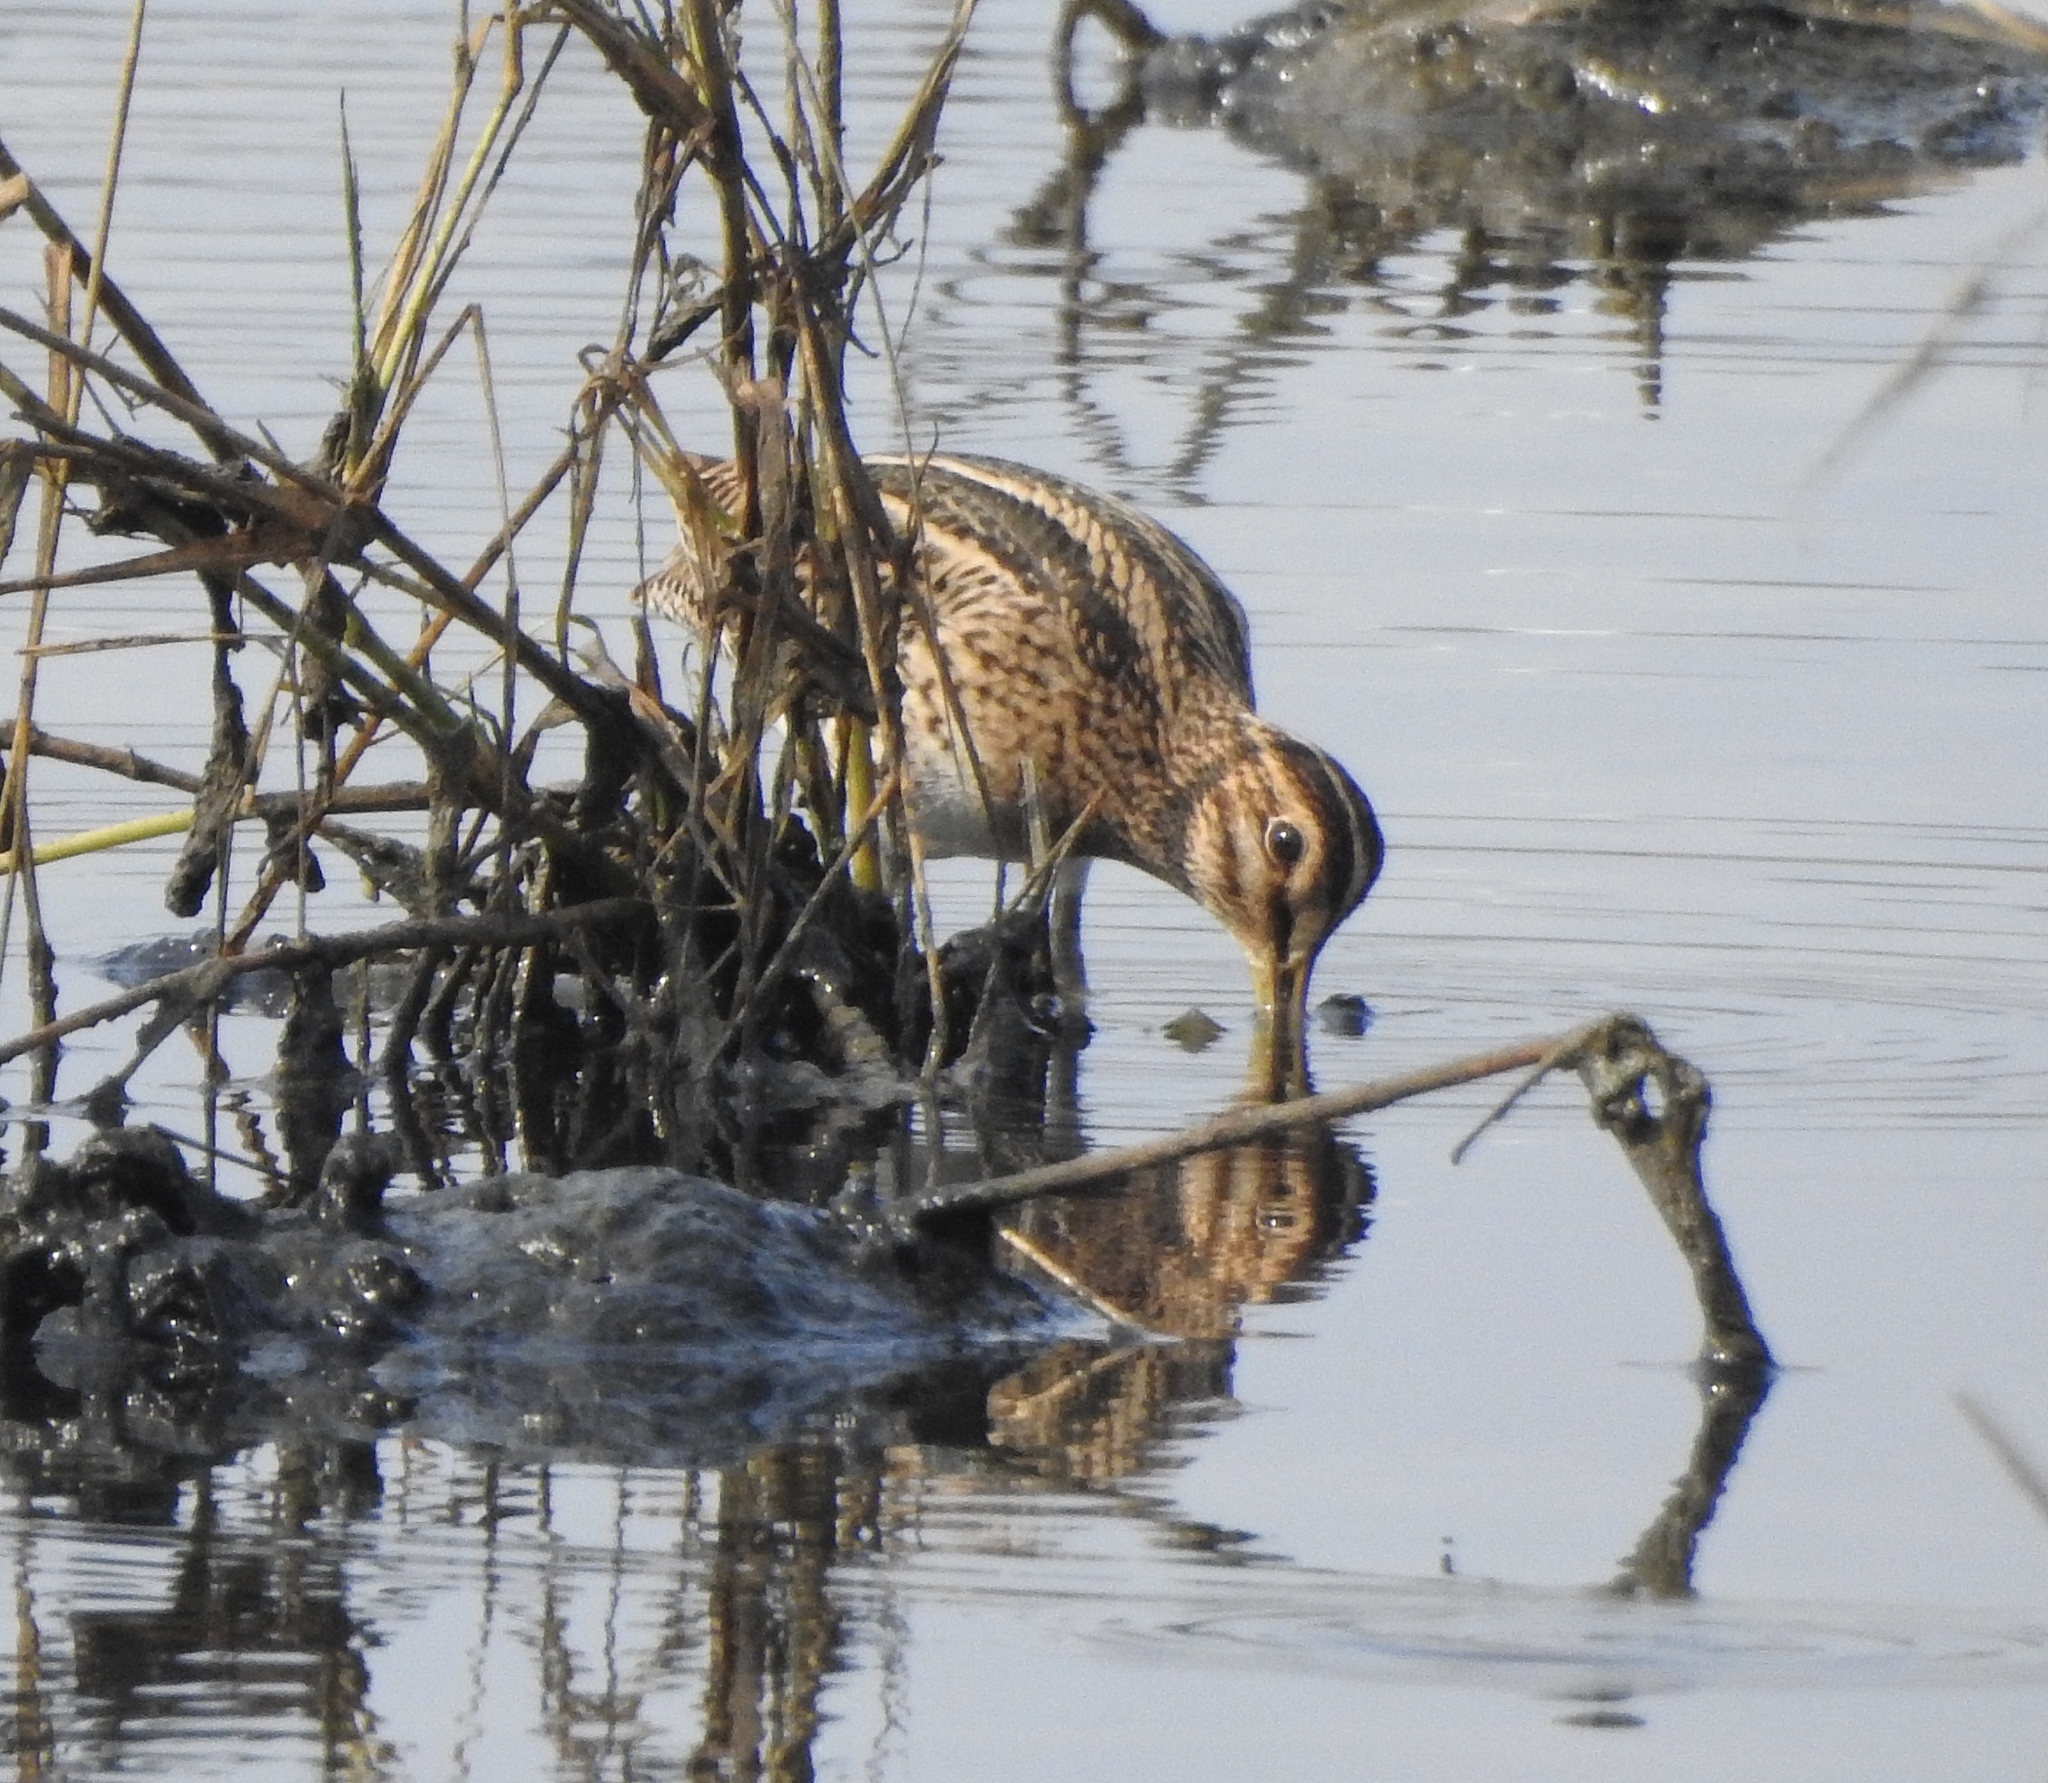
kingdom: Animalia
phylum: Chordata
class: Aves
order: Charadriiformes
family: Scolopacidae
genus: Gallinago
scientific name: Gallinago stenura
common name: Pin-tailed snipe
